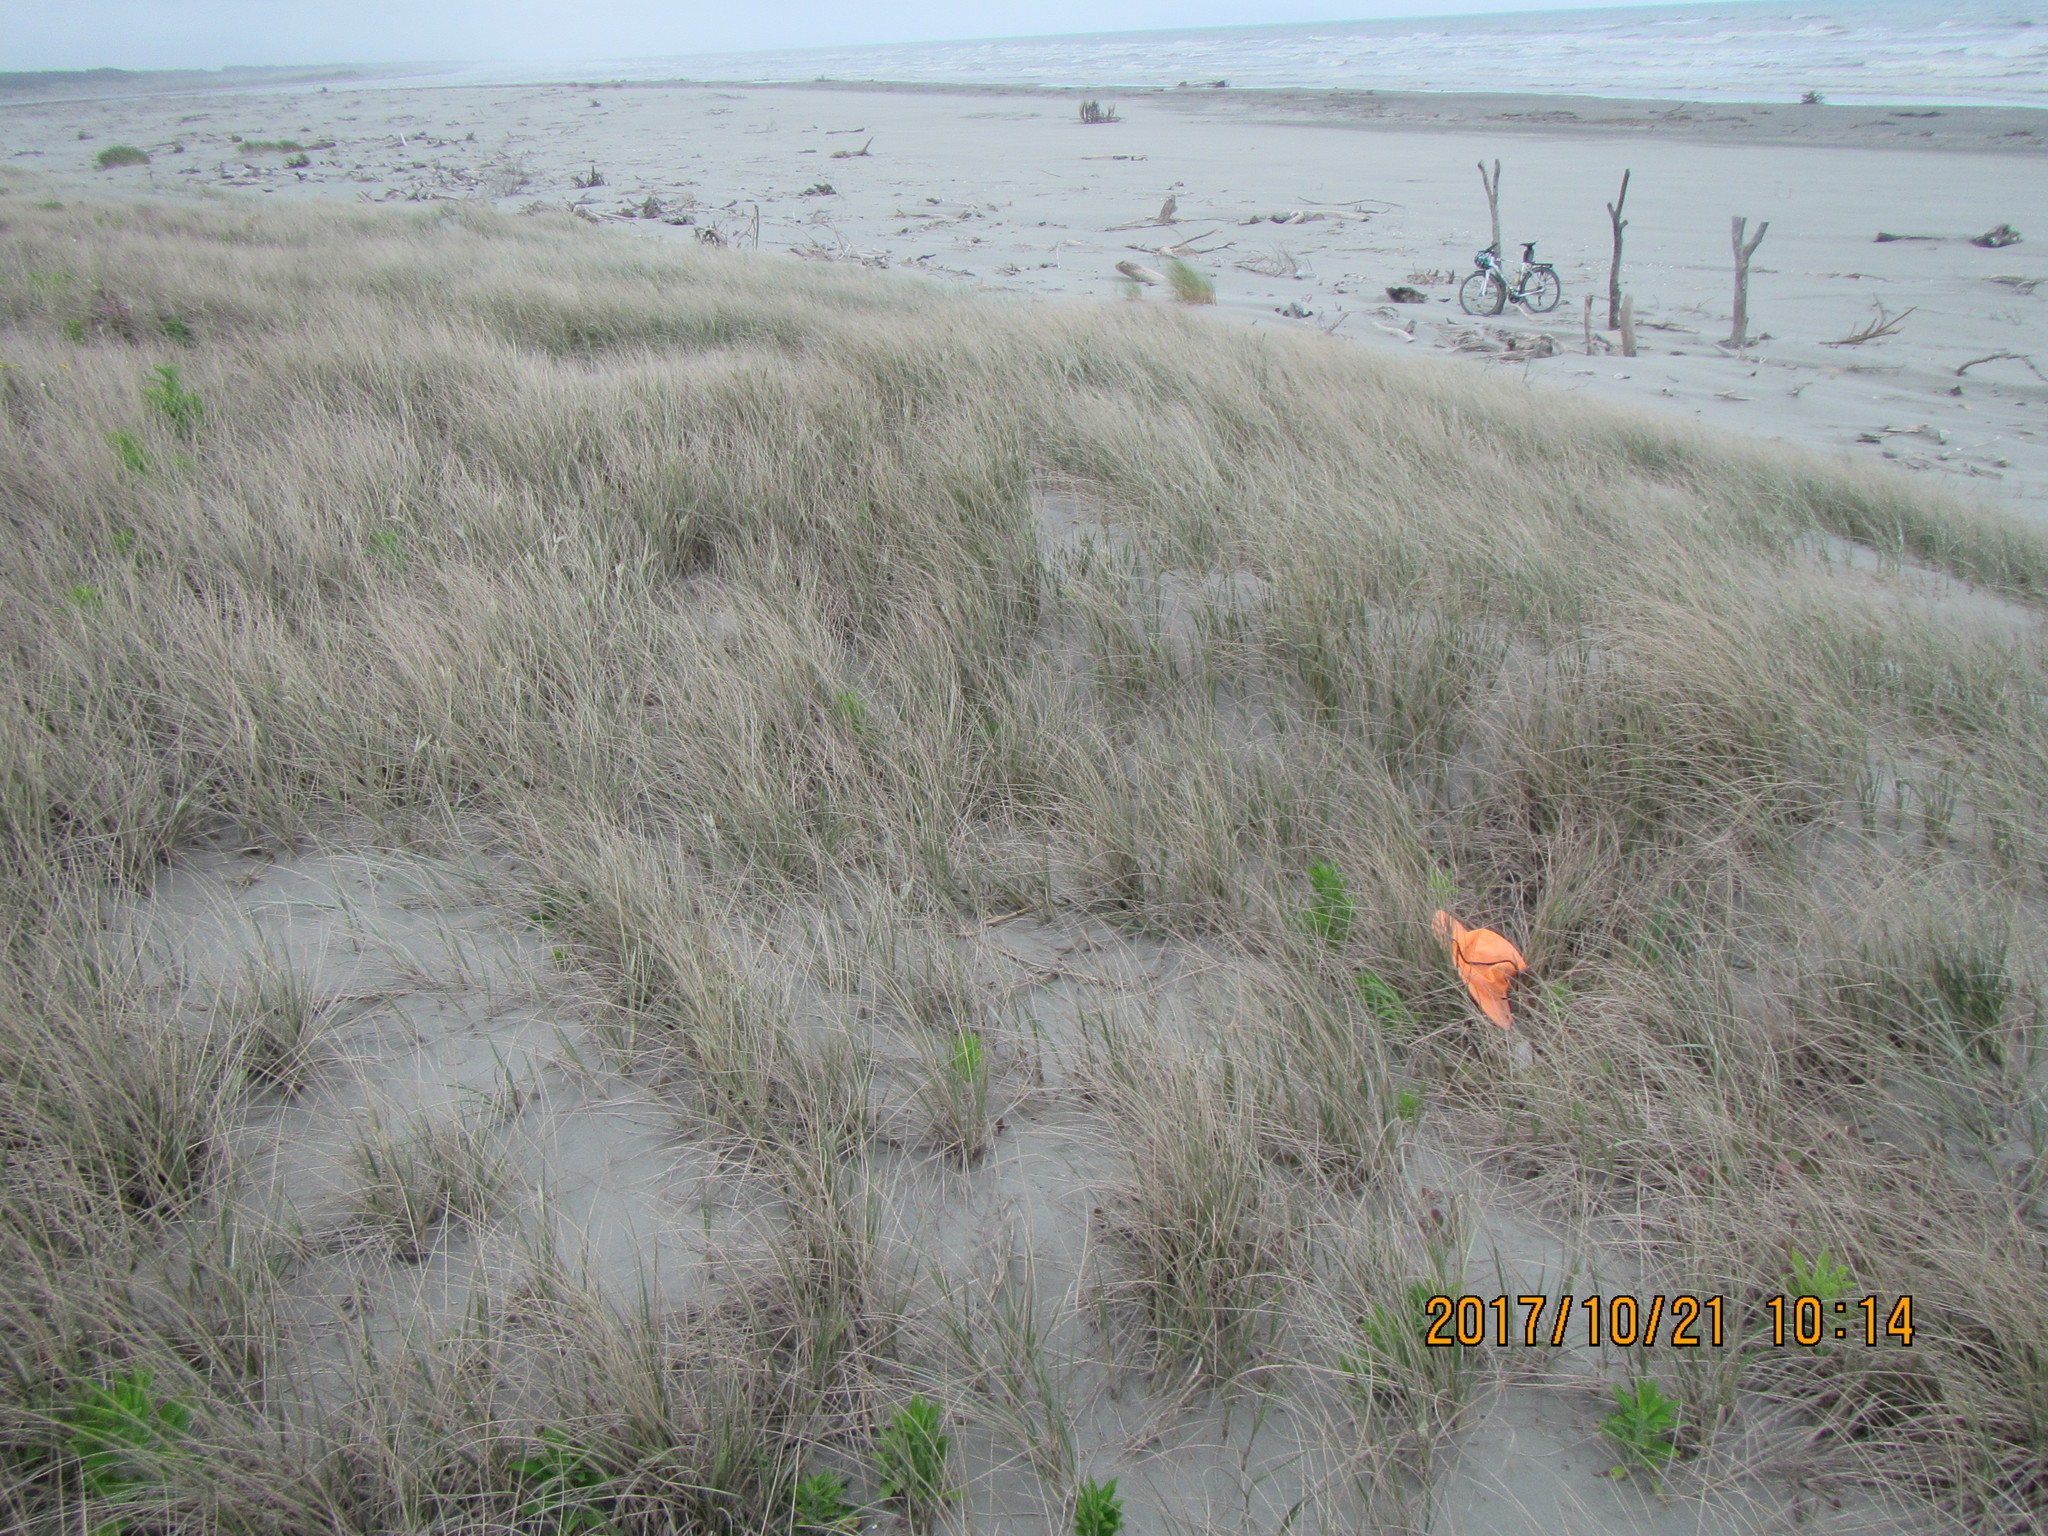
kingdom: Animalia
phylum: Arthropoda
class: Arachnida
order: Araneae
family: Theridiidae
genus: Steatoda
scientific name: Steatoda capensis
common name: Cobweb weaver
